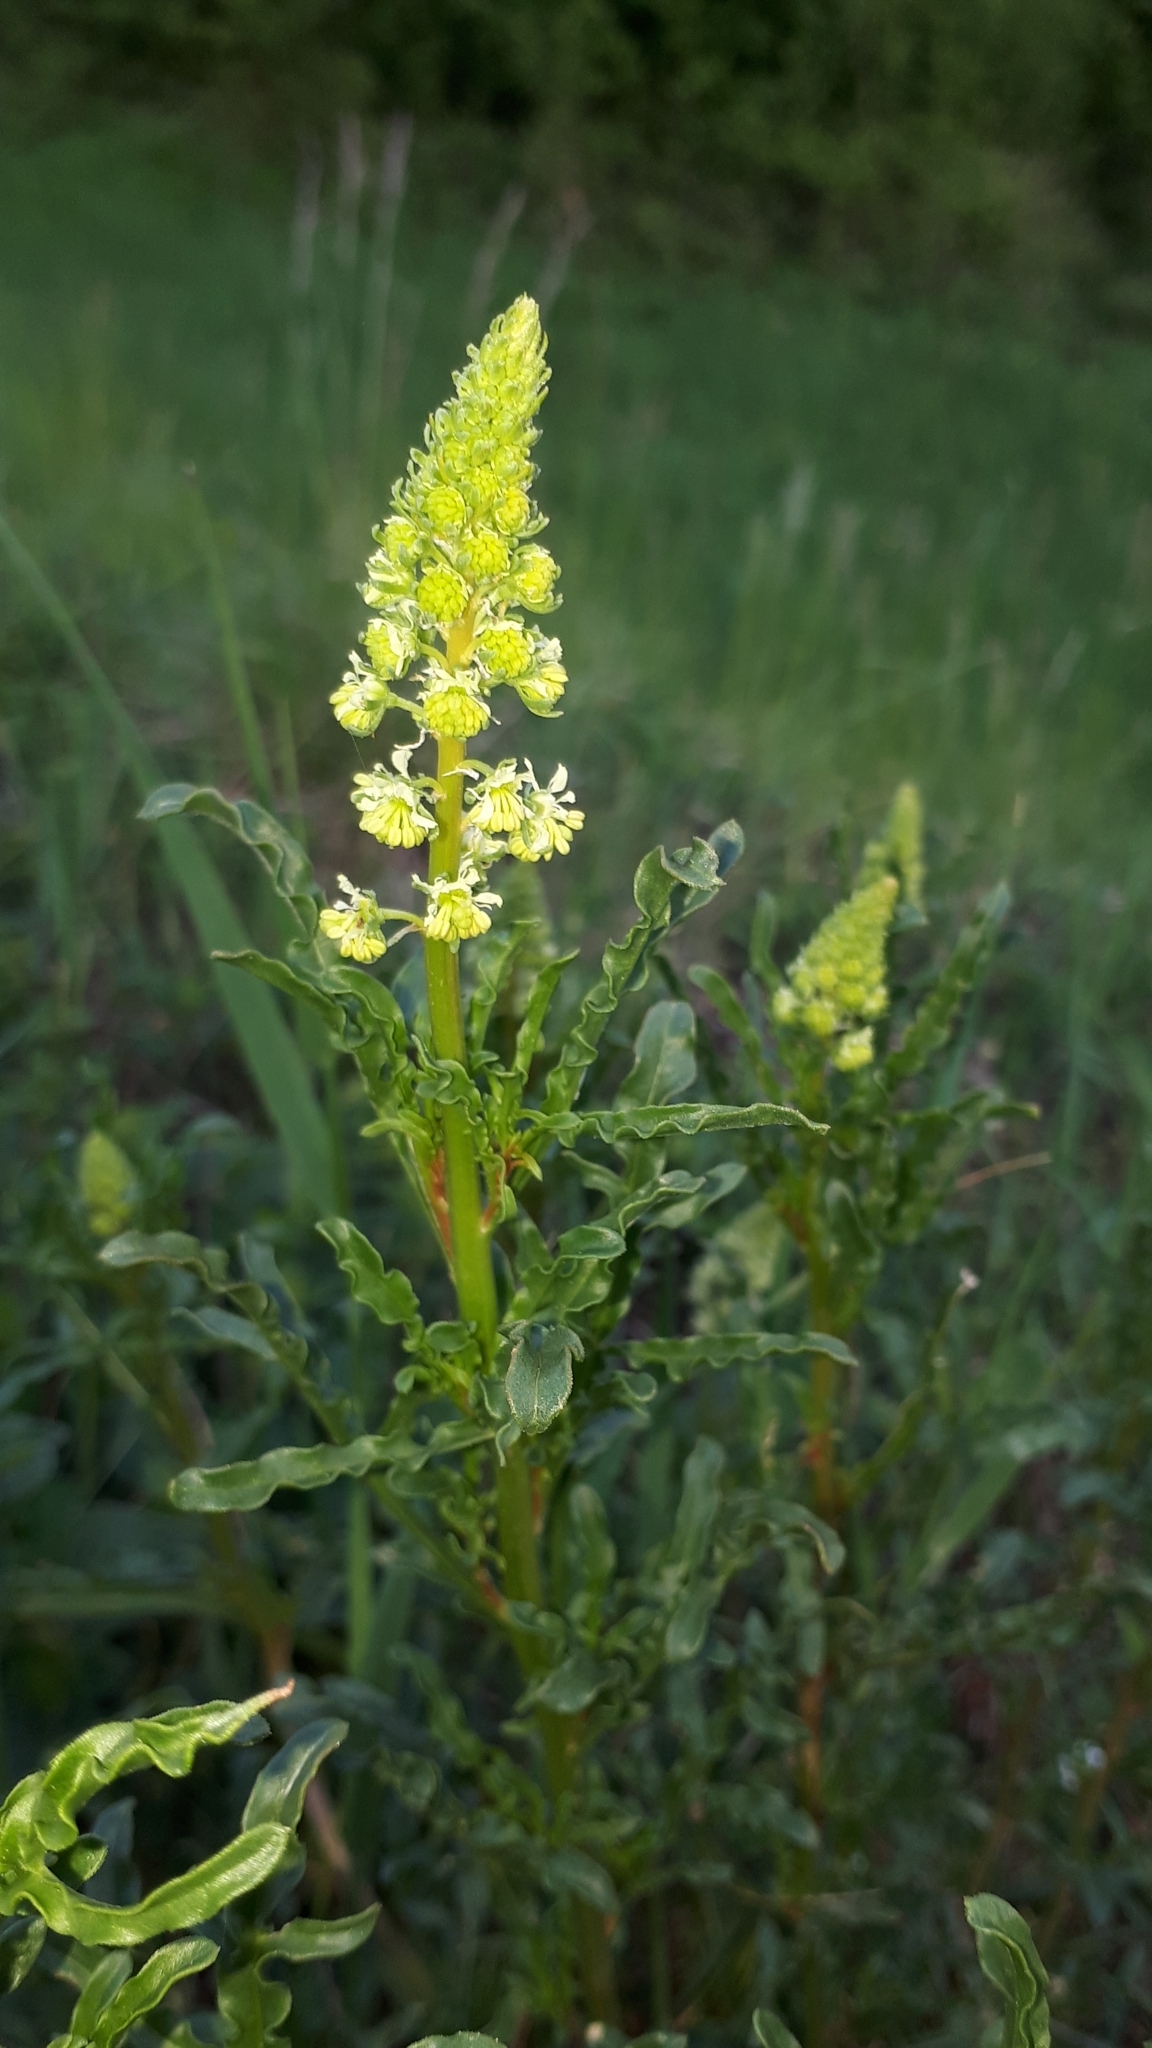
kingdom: Plantae
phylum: Tracheophyta
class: Magnoliopsida
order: Brassicales
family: Resedaceae
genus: Reseda
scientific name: Reseda luteola
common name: Weld
